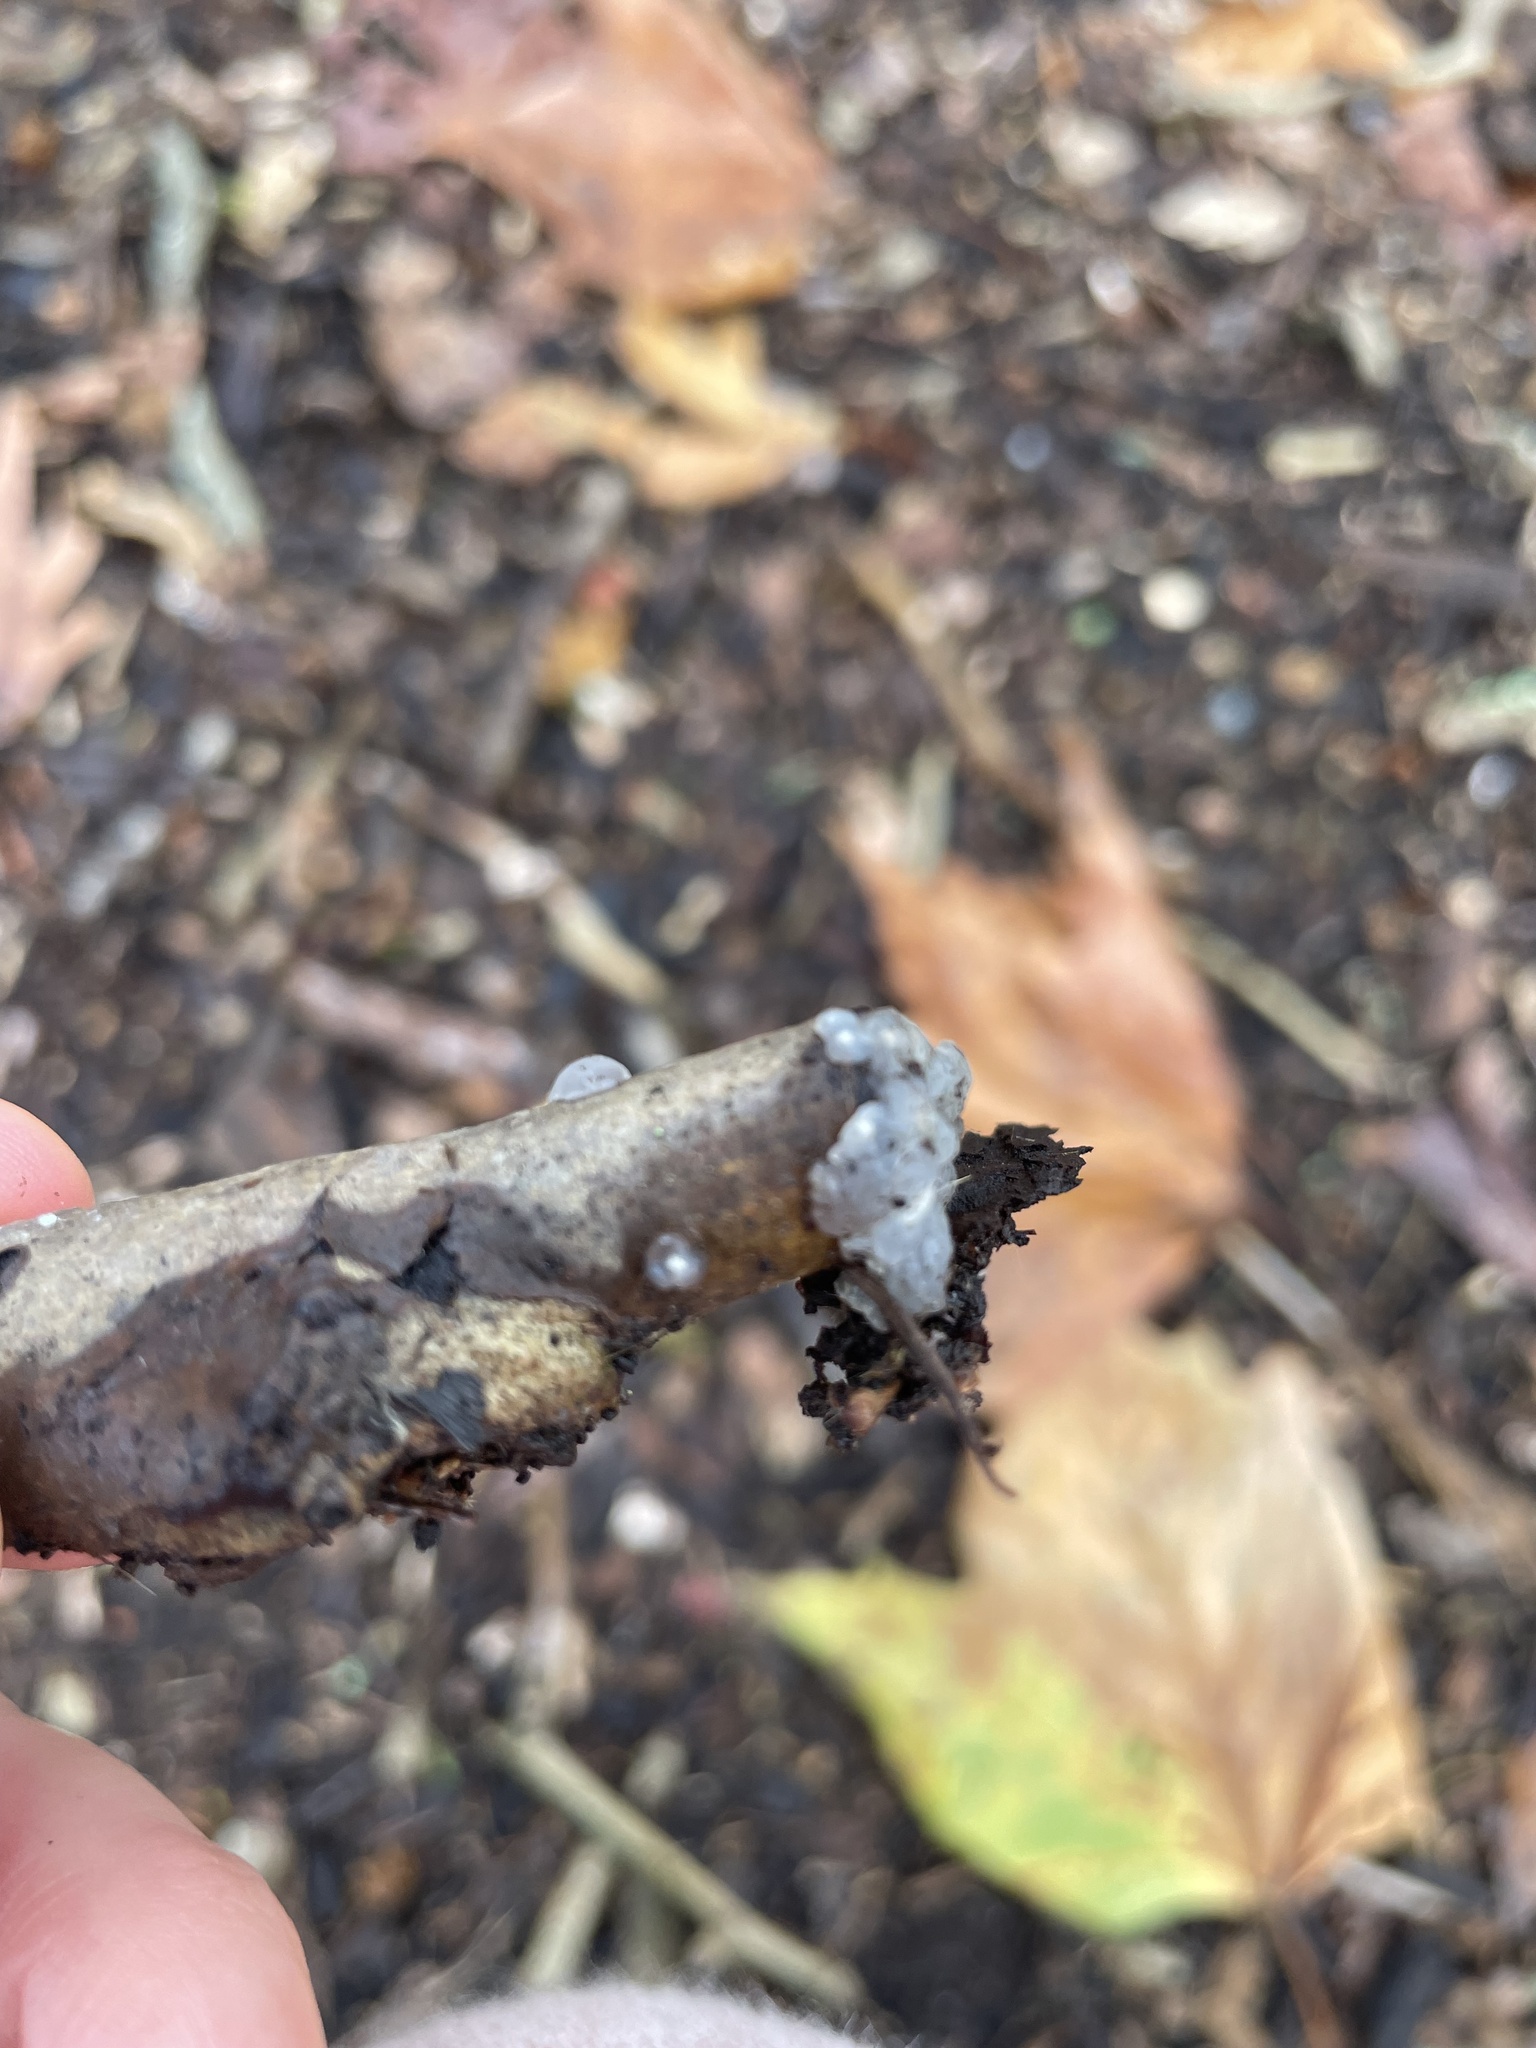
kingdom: Fungi
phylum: Basidiomycota
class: Agaricomycetes
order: Auriculariales
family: Hyaloriaceae
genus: Myxarium
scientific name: Myxarium nucleatum
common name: Crystal brain fungus
